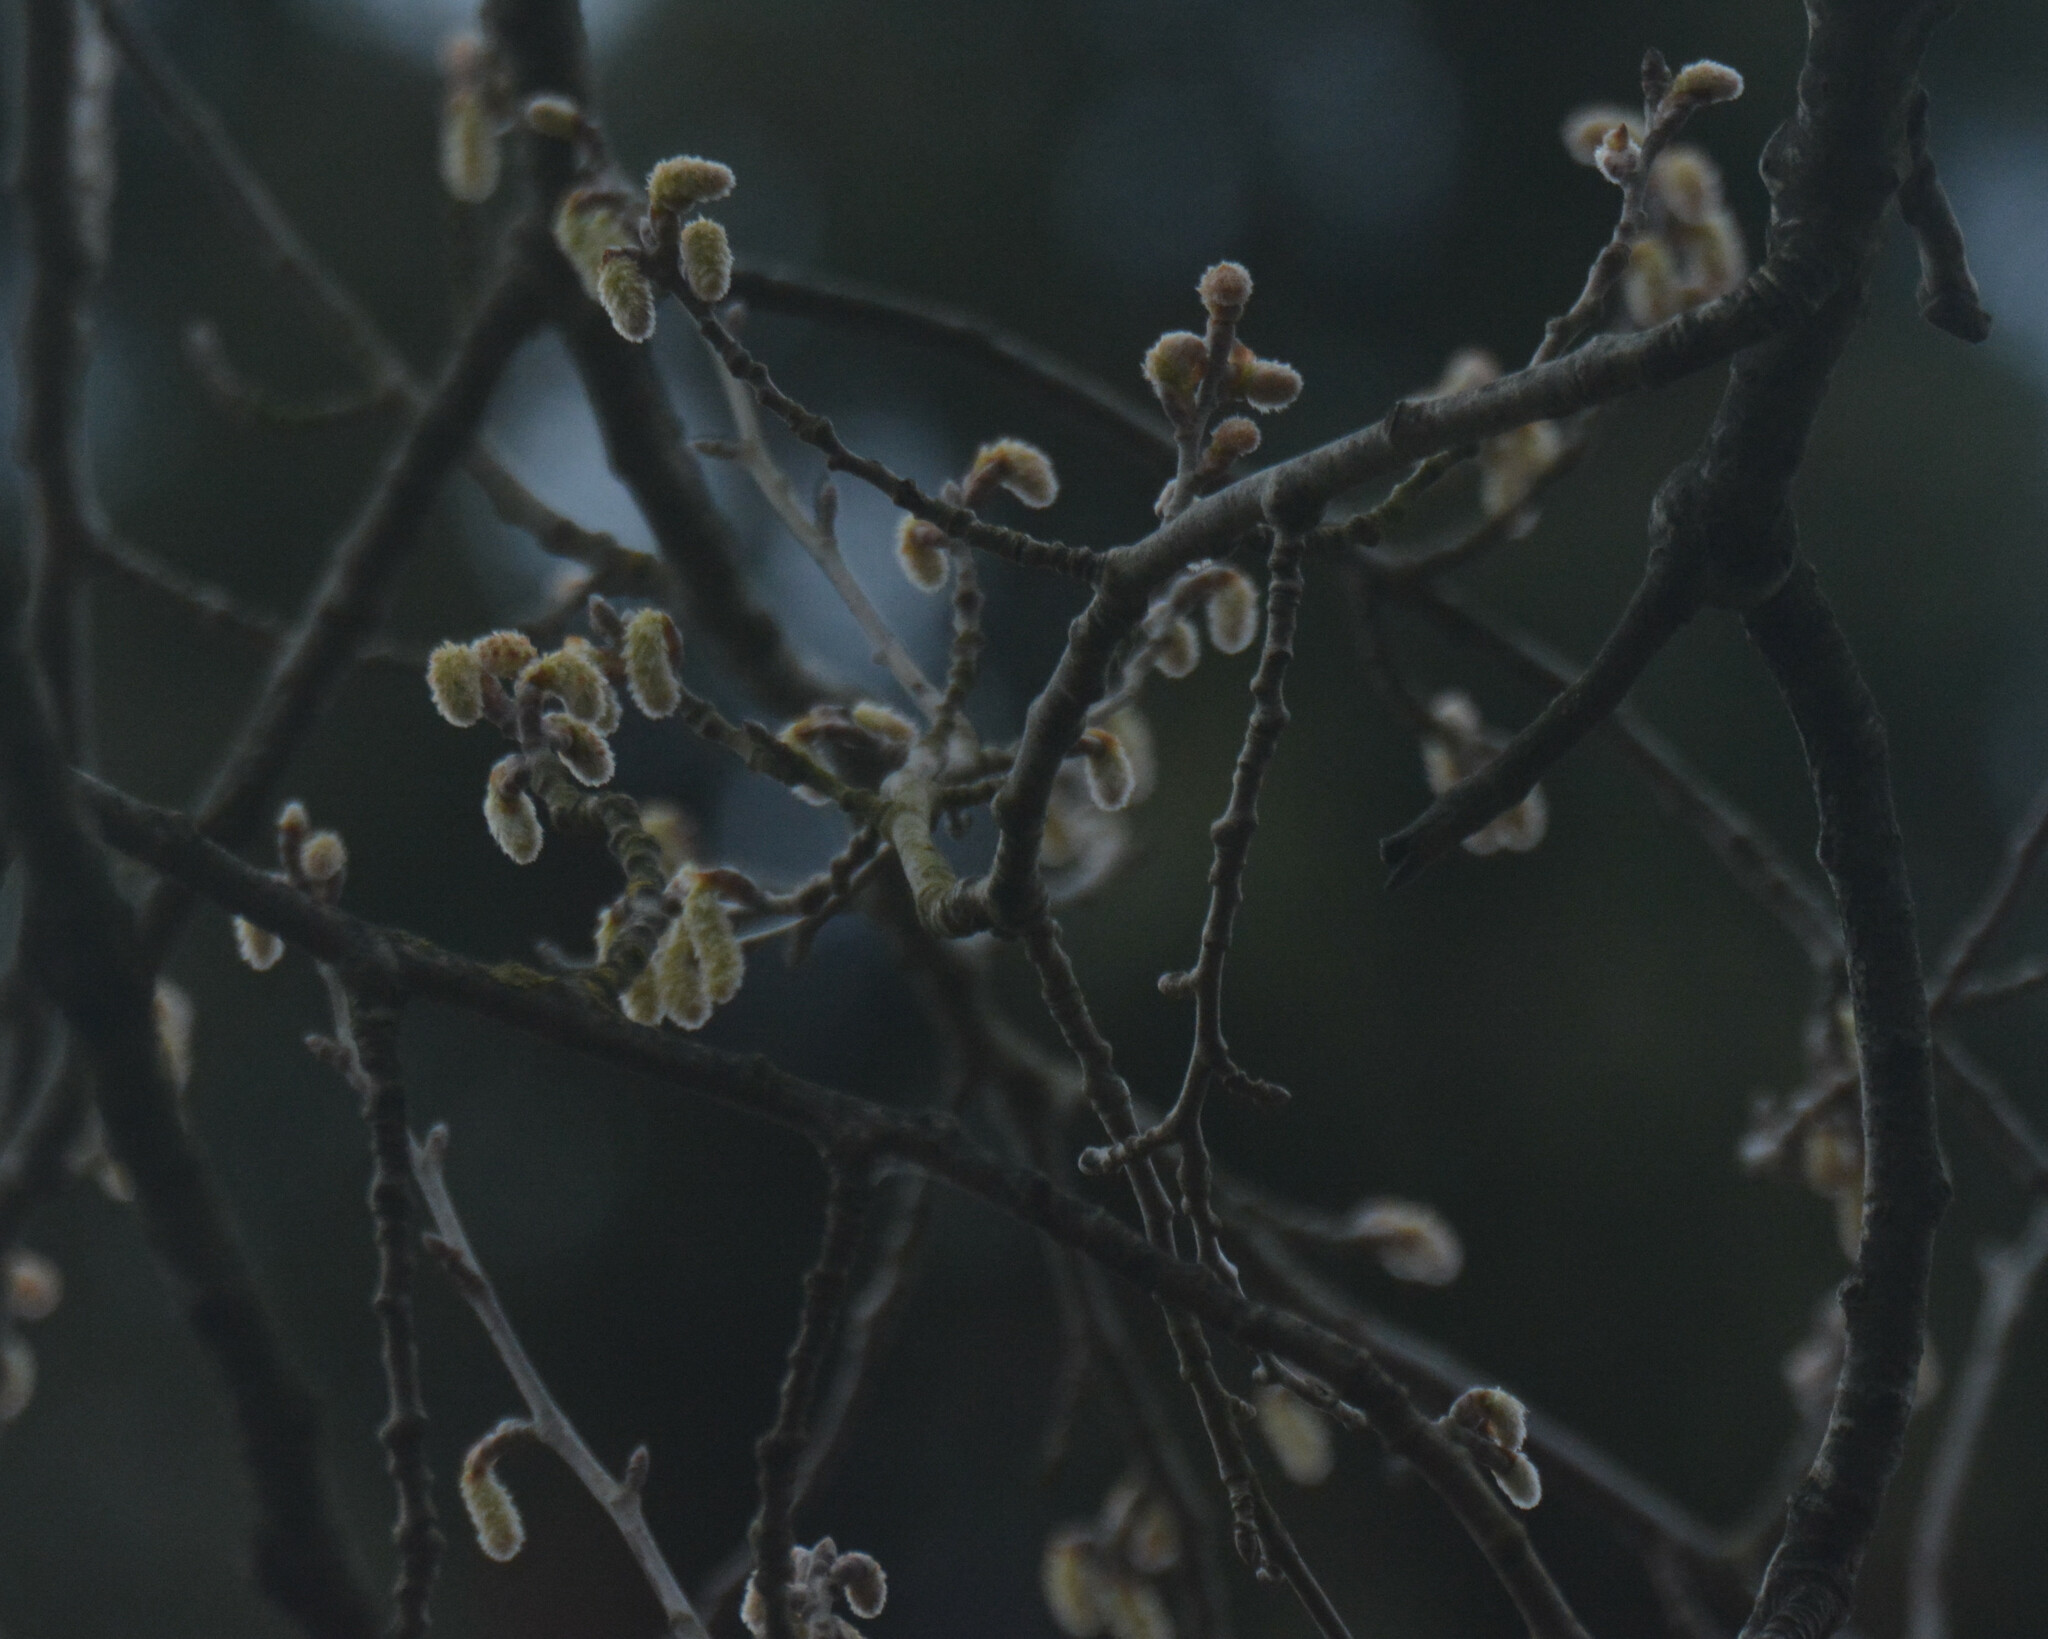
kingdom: Plantae
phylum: Tracheophyta
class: Magnoliopsida
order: Malpighiales
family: Salicaceae
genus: Populus
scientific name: Populus alba
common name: White poplar
